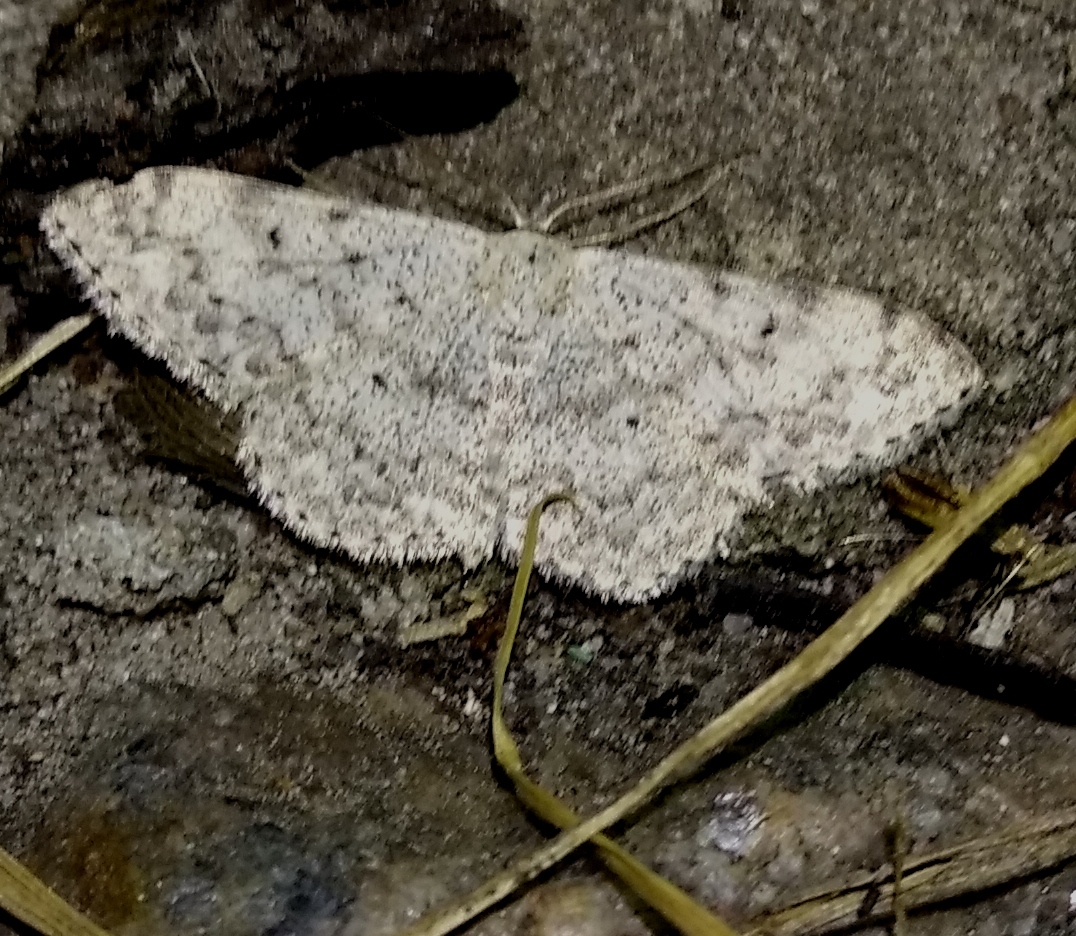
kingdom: Animalia
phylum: Arthropoda
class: Insecta
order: Lepidoptera
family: Geometridae
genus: Scopula
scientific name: Scopula marginepunctata
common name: Mullein wave
